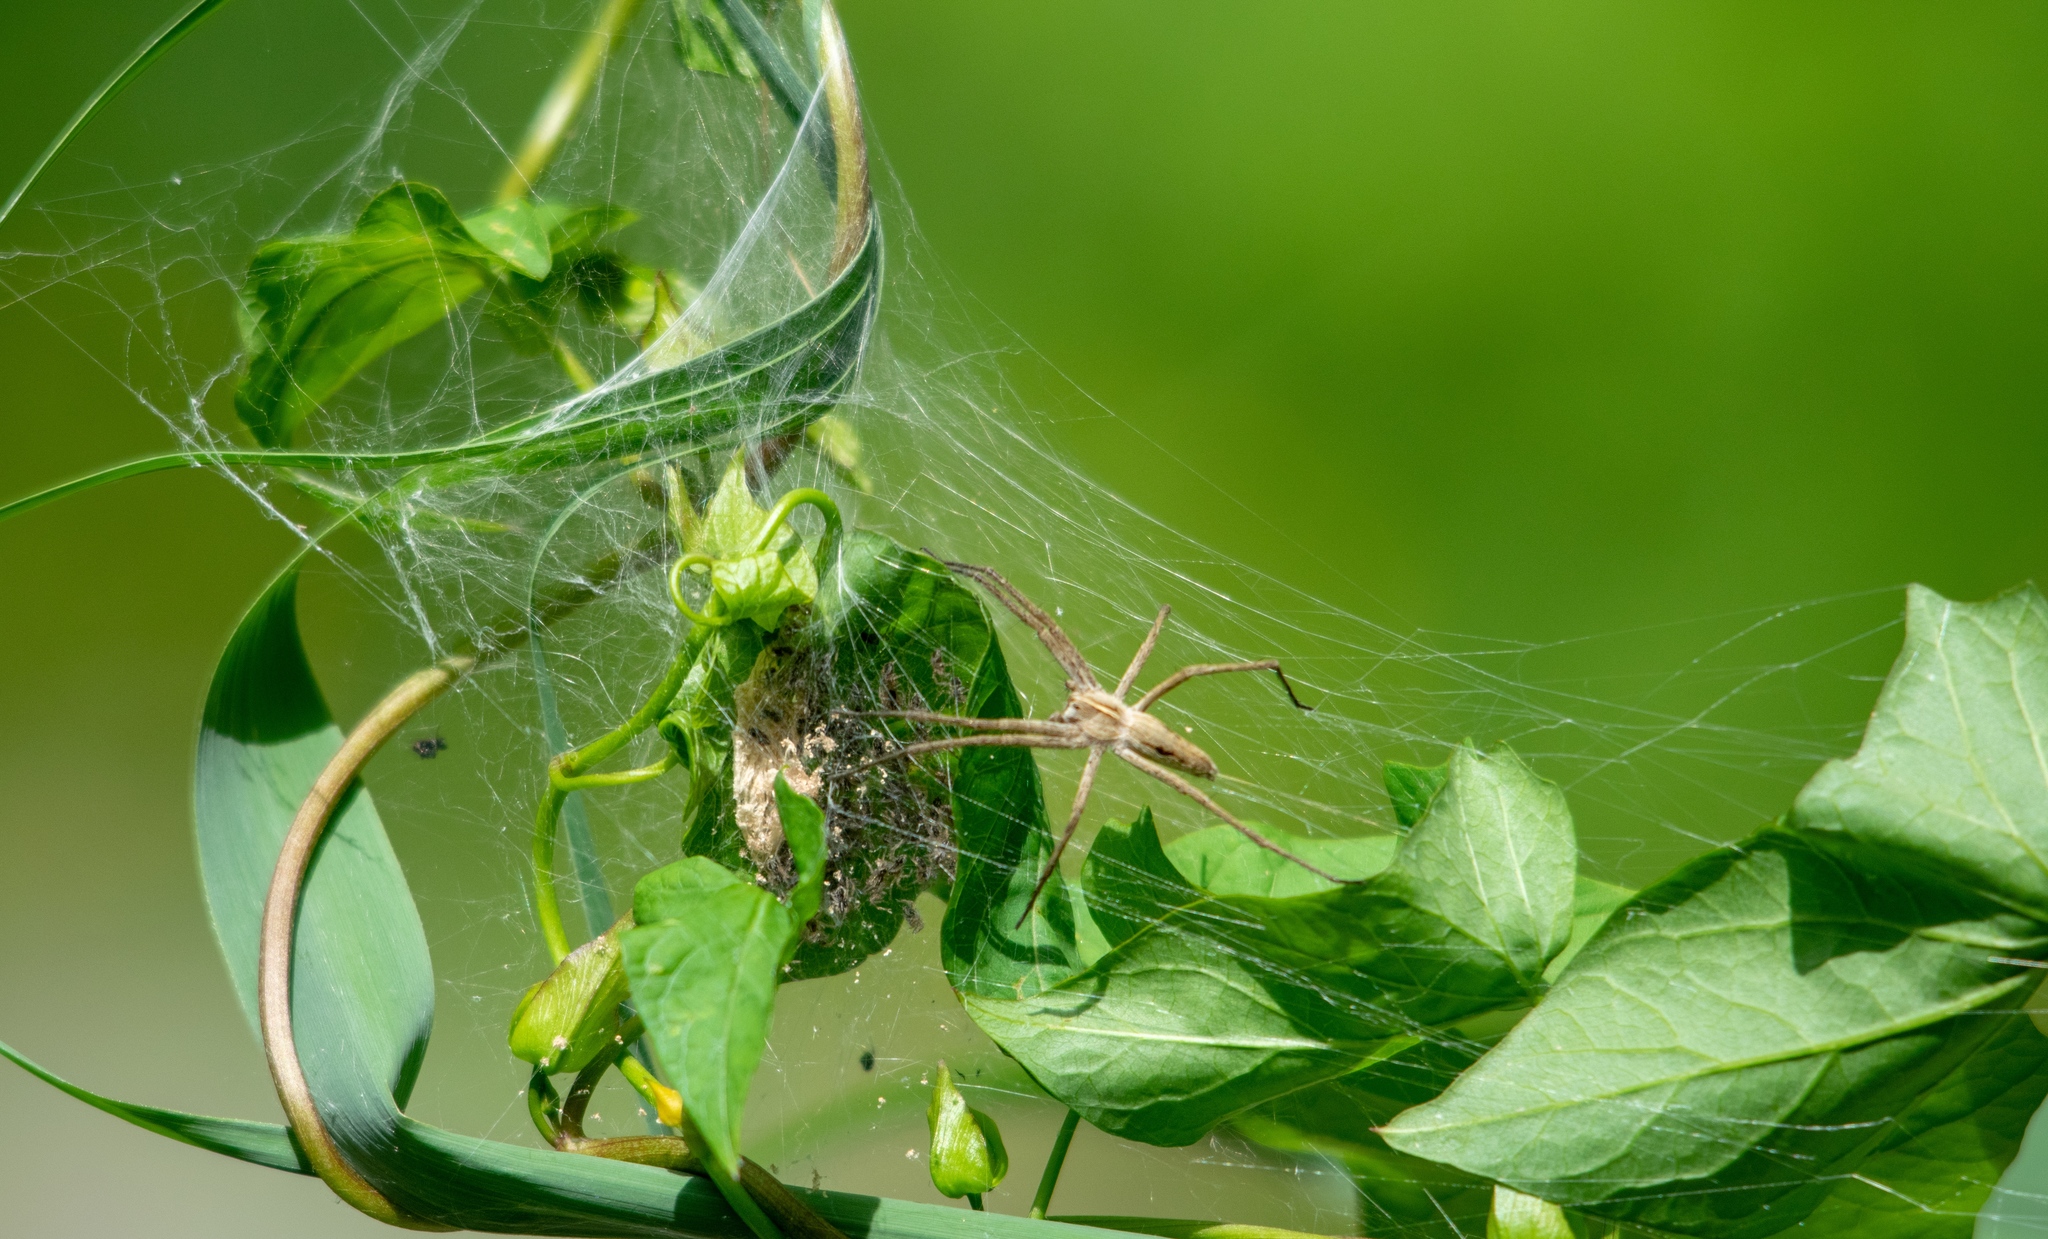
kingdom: Animalia
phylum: Arthropoda
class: Arachnida
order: Araneae
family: Pisauridae
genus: Pisaura
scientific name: Pisaura mirabilis
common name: Tent spider
